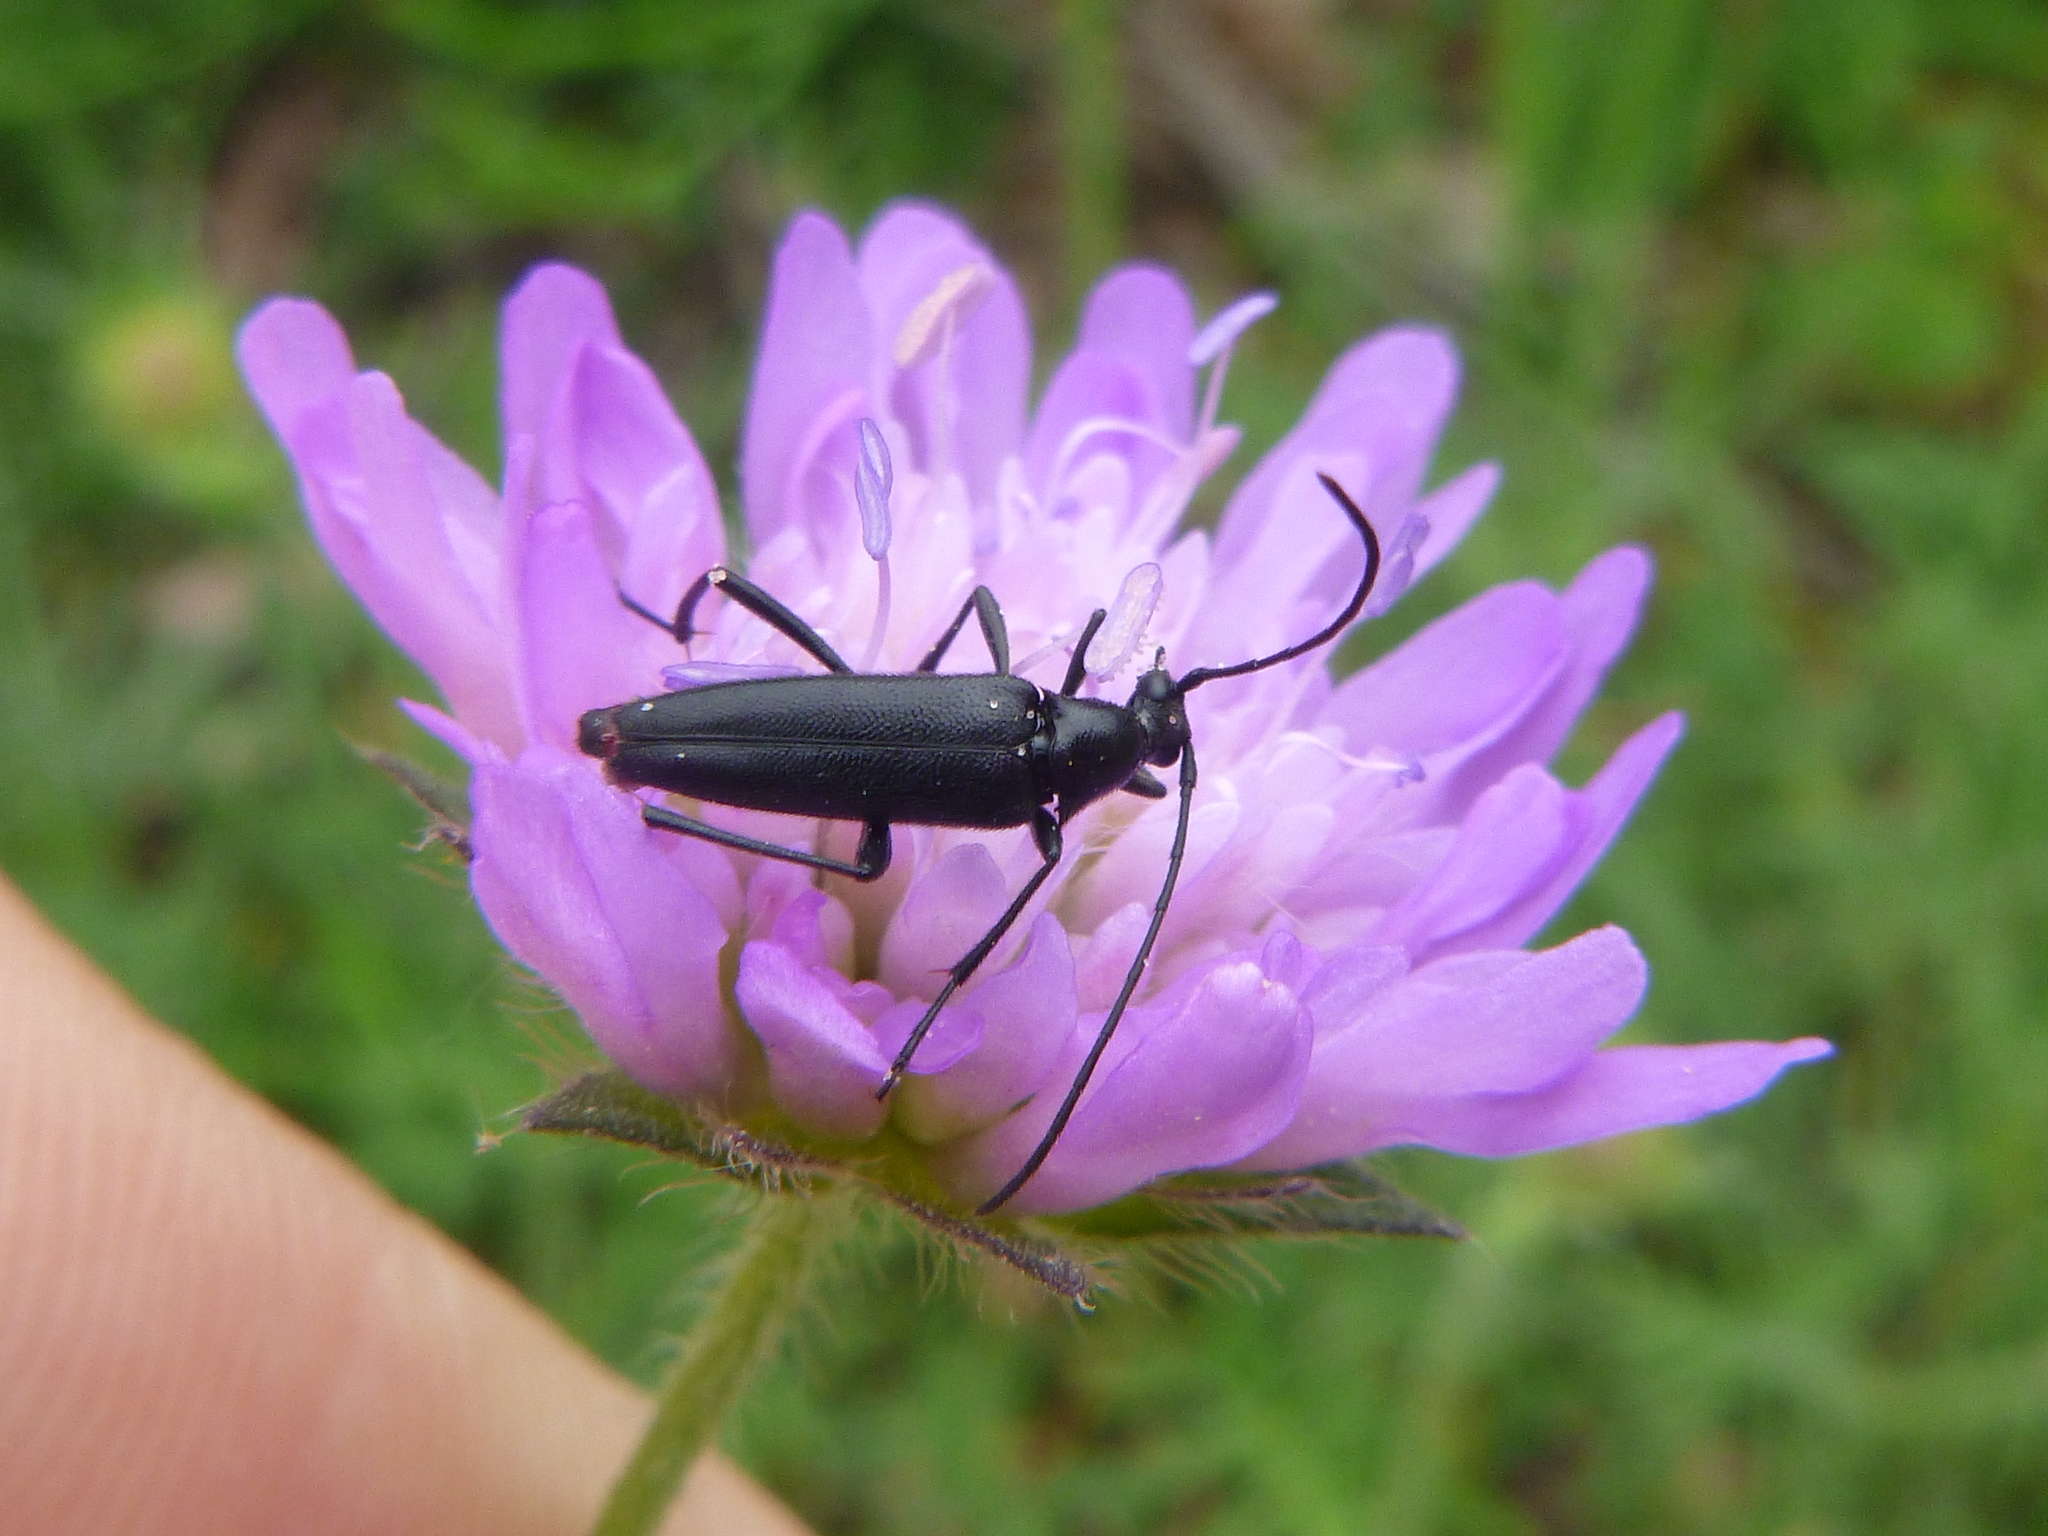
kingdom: Animalia
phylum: Arthropoda
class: Insecta
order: Coleoptera
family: Cerambycidae
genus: Stenurella
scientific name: Stenurella nigra
